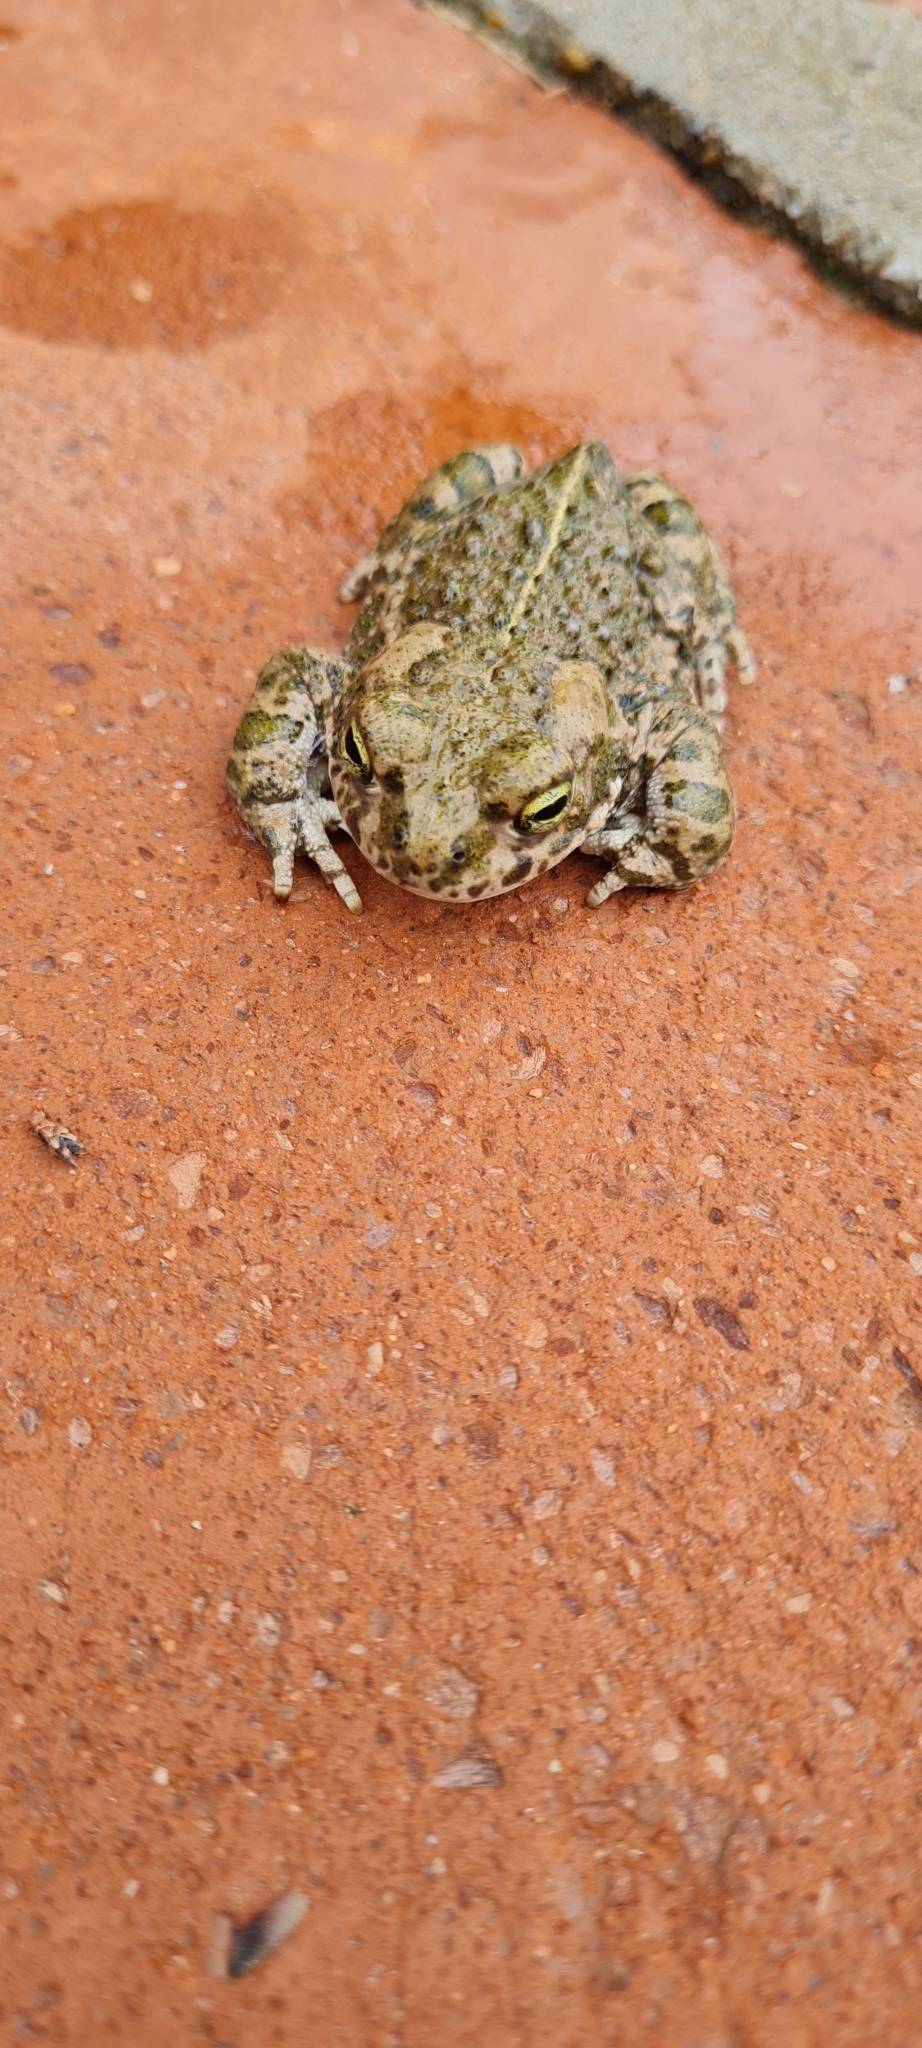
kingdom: Animalia
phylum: Chordata
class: Amphibia
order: Anura
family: Bufonidae
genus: Epidalea
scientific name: Epidalea calamita
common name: Natterjack toad
